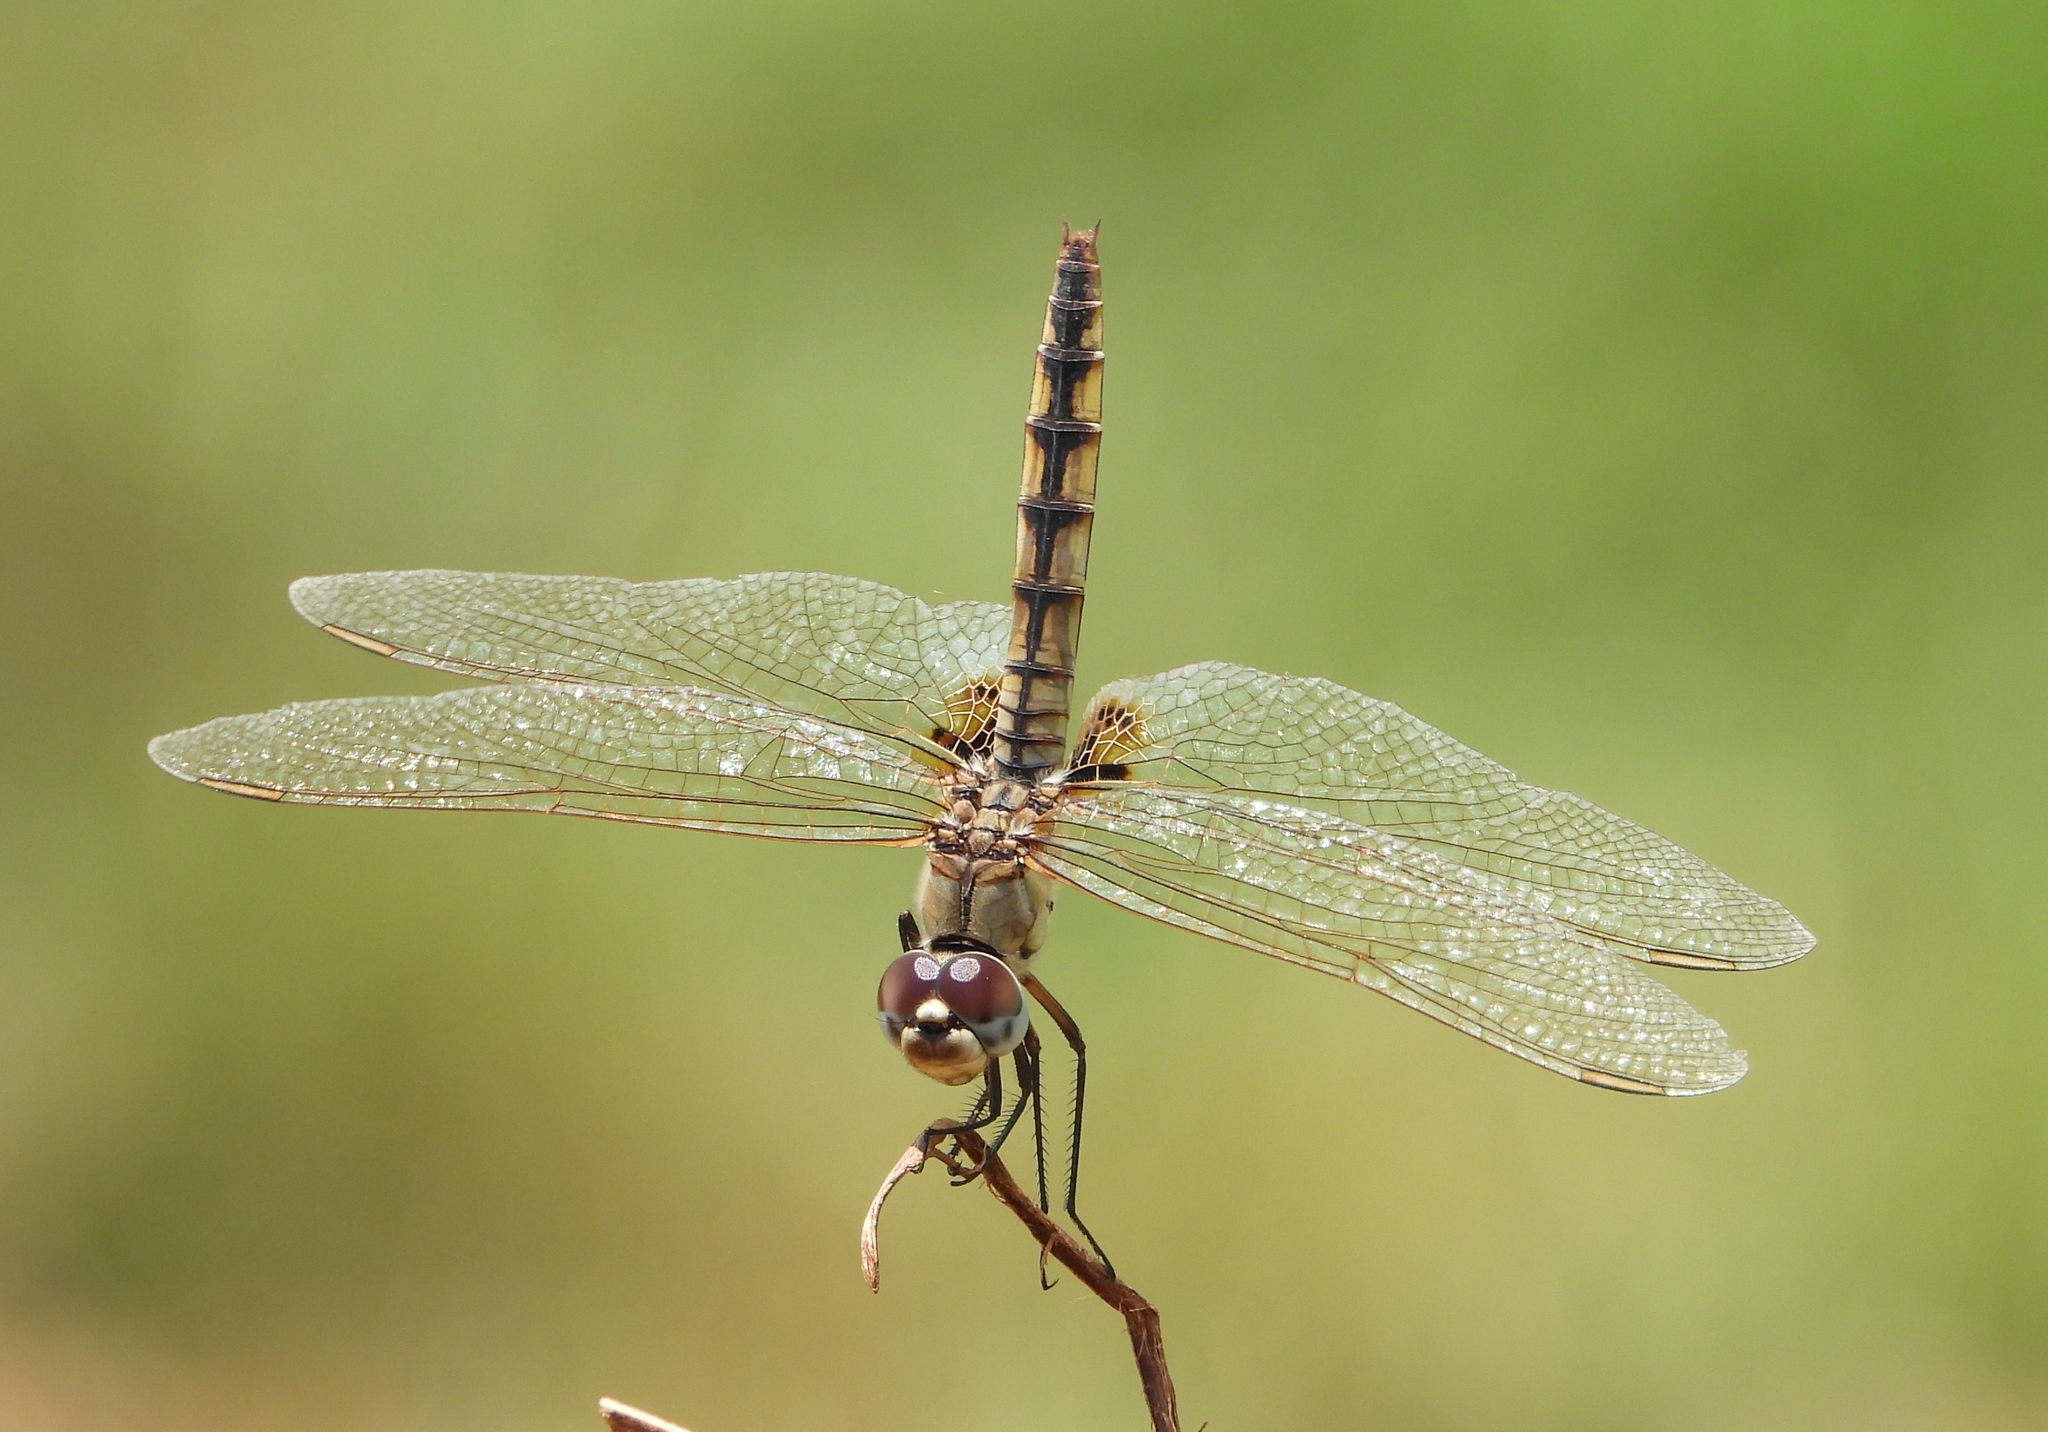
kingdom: Animalia
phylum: Arthropoda
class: Insecta
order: Odonata
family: Libellulidae
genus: Urothemis
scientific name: Urothemis edwardsii
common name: Blue basker
